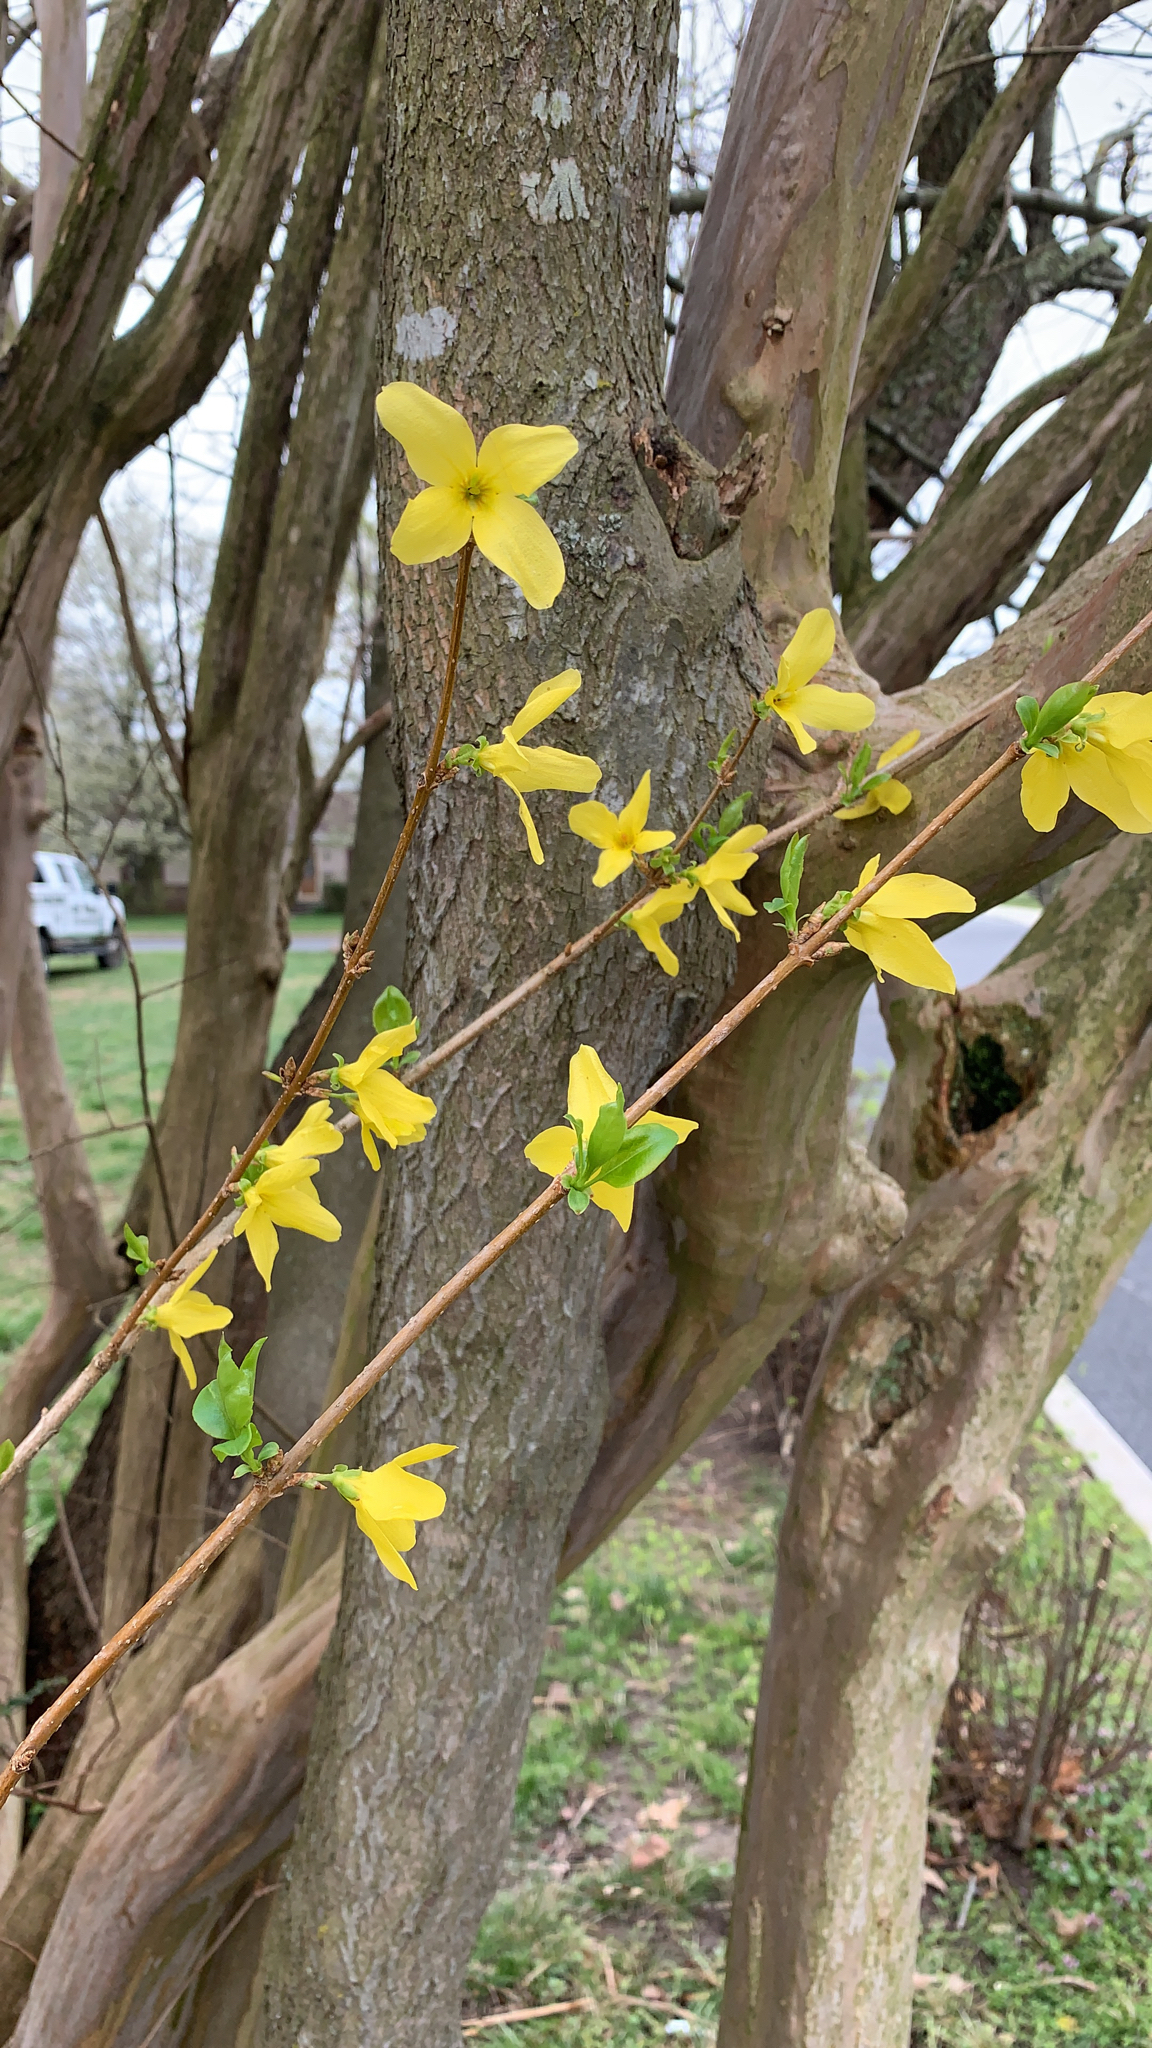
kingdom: Plantae
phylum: Tracheophyta
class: Magnoliopsida
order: Lamiales
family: Oleaceae
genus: Forsythia
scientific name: Forsythia intermedia
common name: Forsythia
